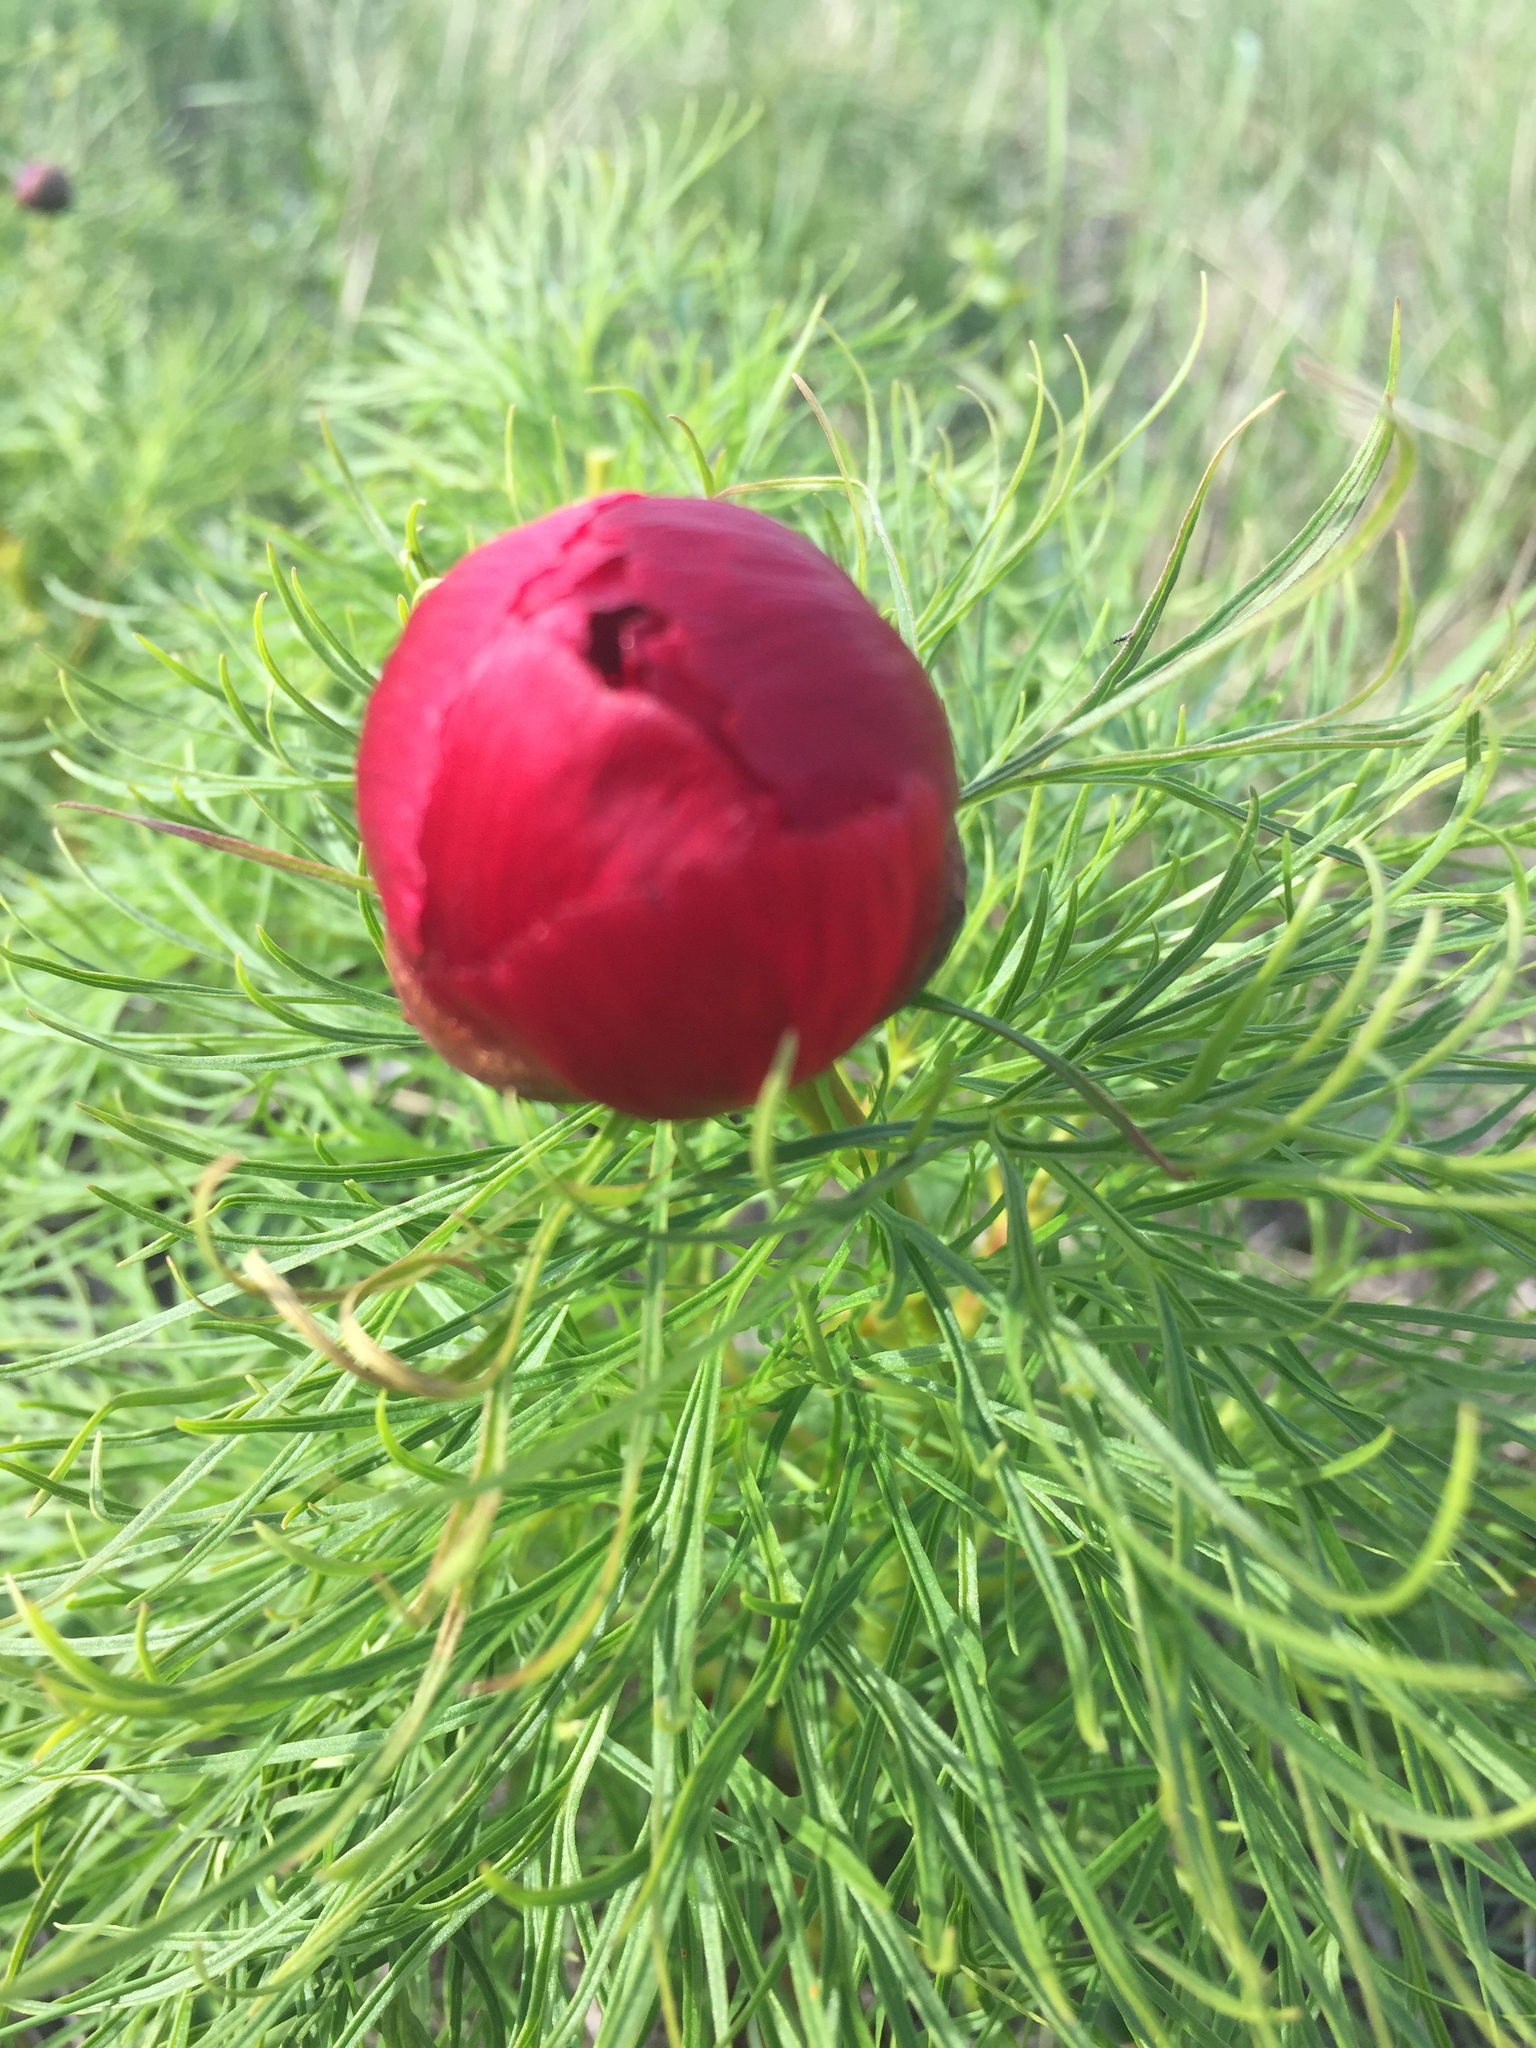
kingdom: Plantae
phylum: Tracheophyta
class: Magnoliopsida
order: Saxifragales
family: Paeoniaceae
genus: Paeonia
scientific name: Paeonia tenuifolia
